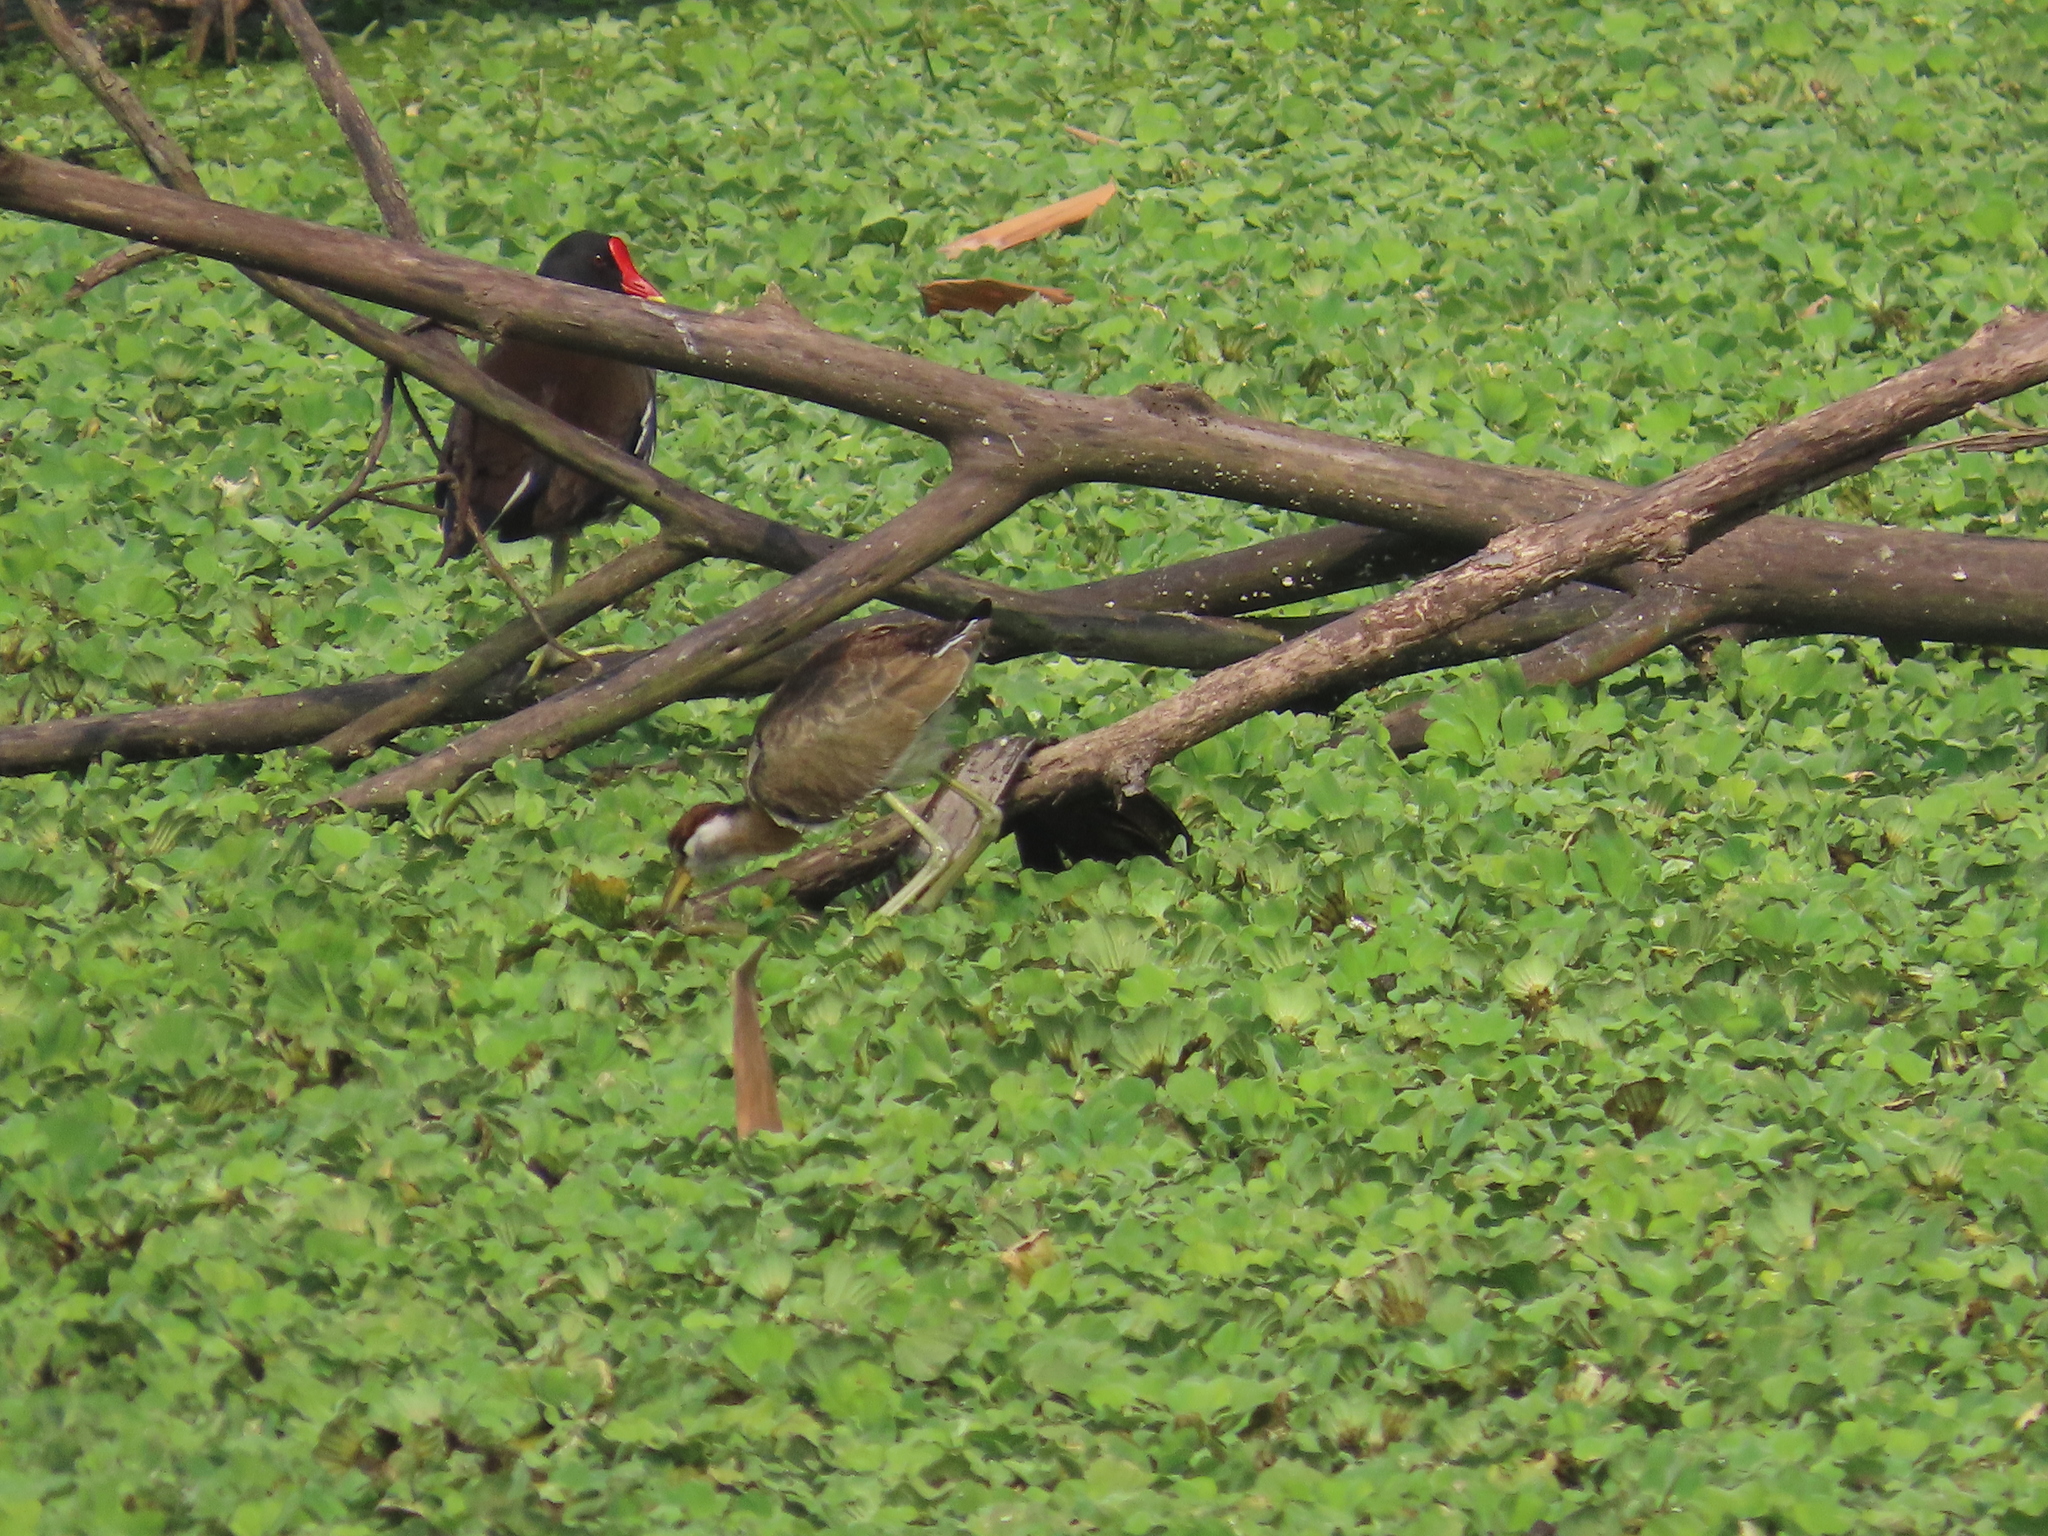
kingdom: Animalia
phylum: Chordata
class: Aves
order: Charadriiformes
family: Jacanidae
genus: Metopidius
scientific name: Metopidius indicus
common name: Bronze-winged jacana
